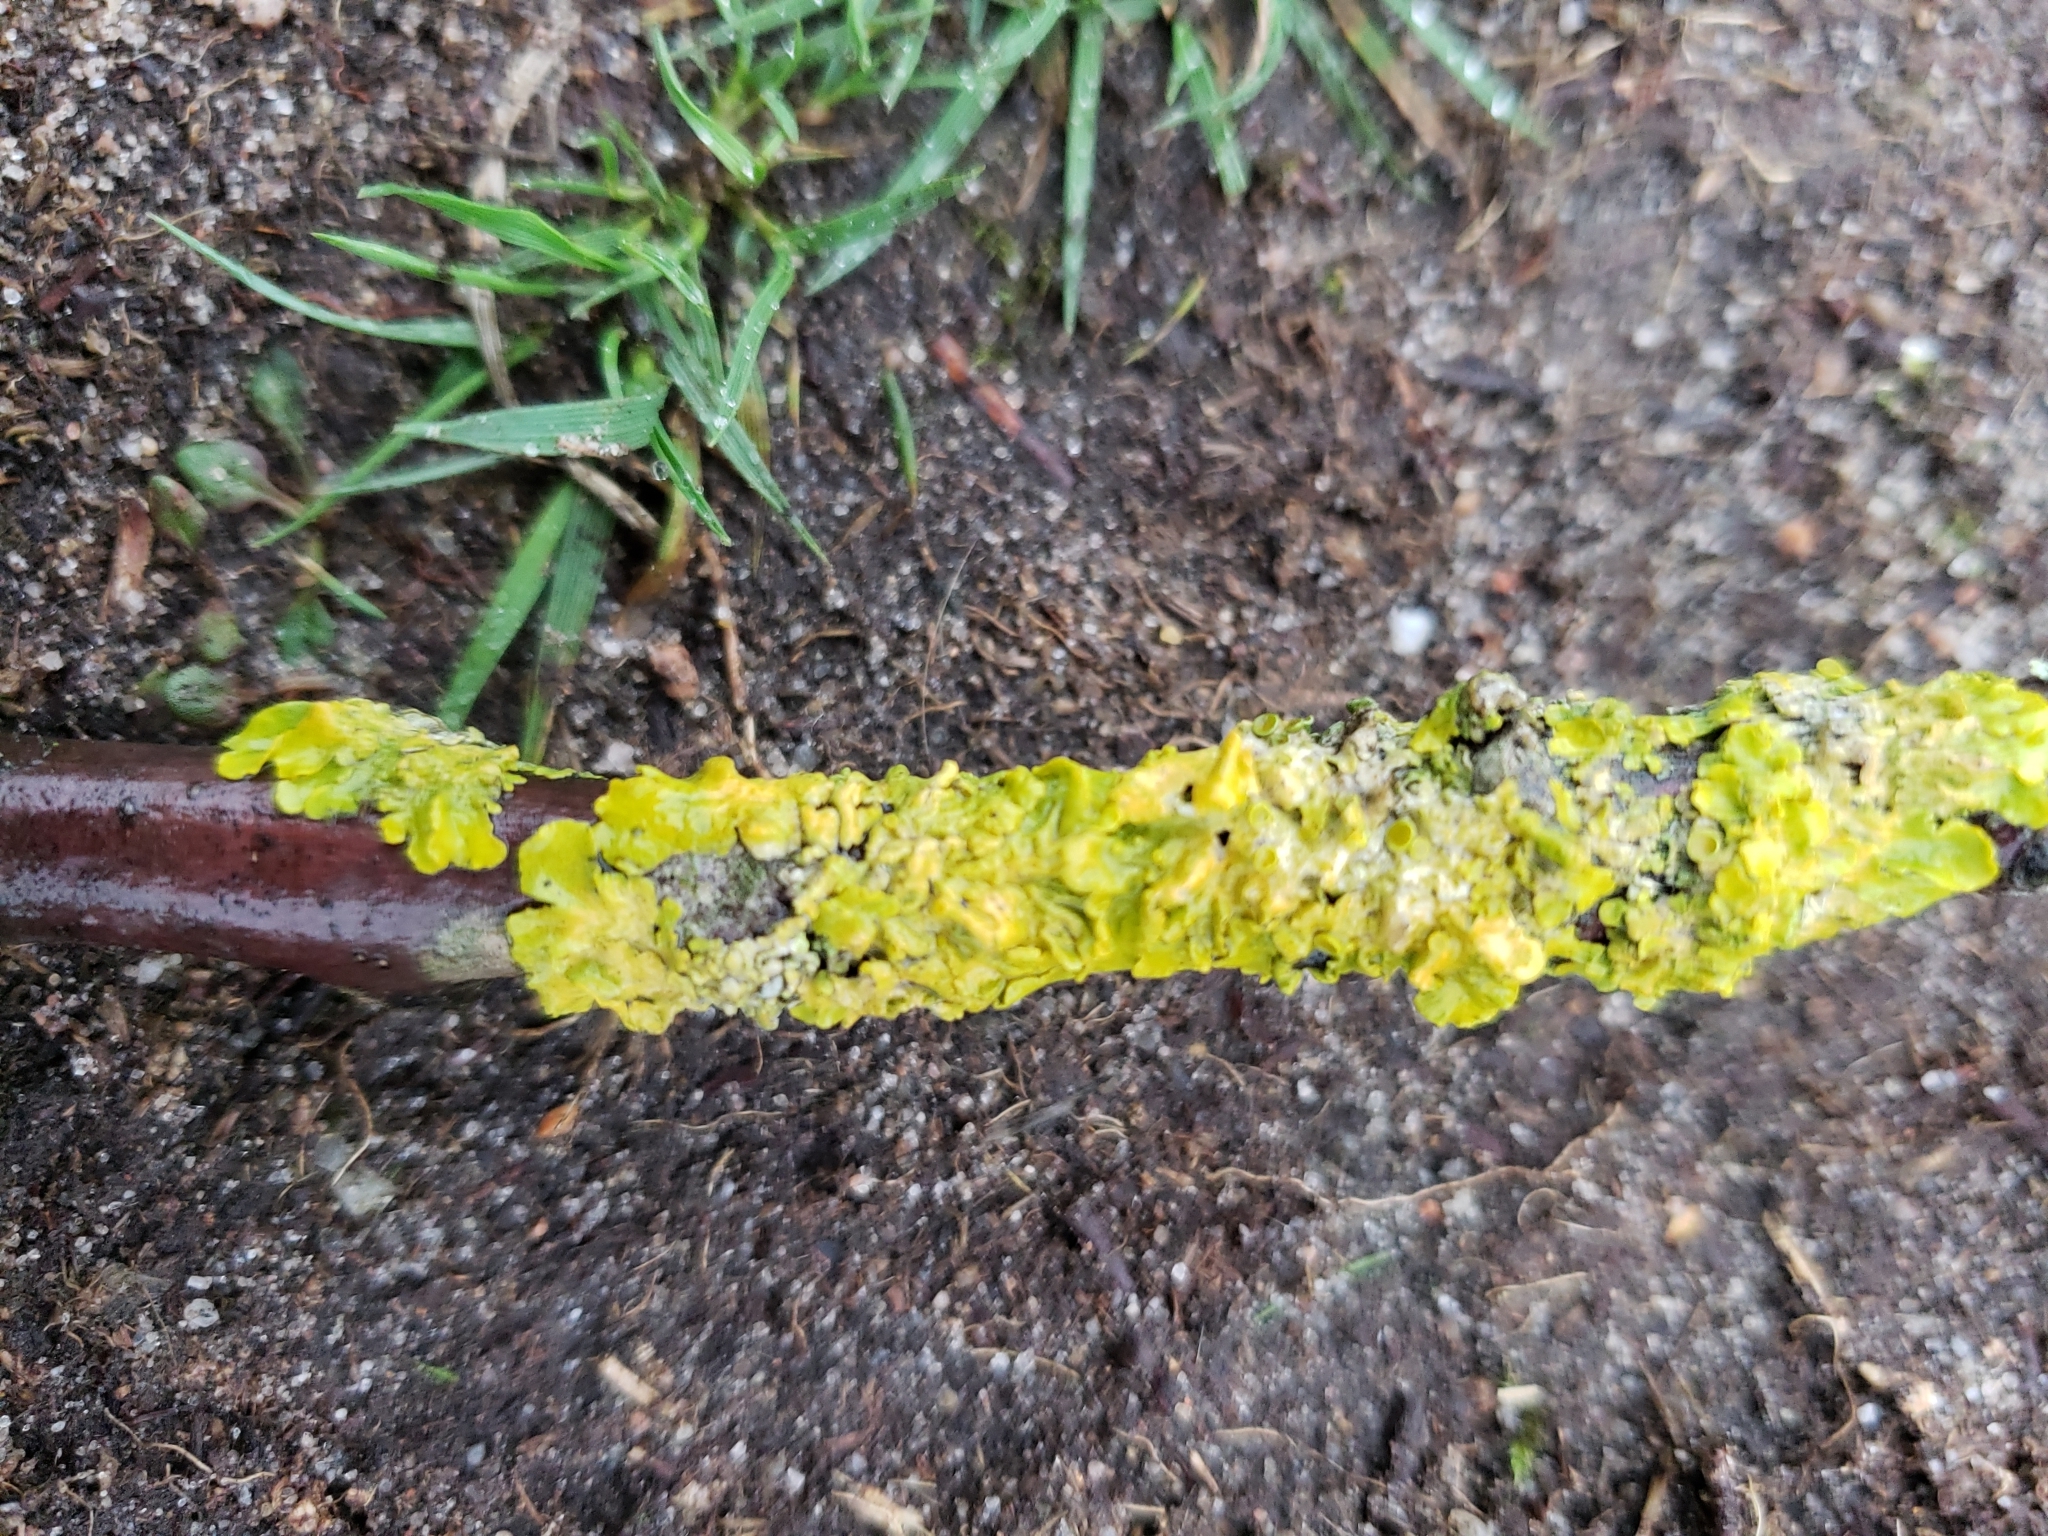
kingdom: Fungi
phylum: Ascomycota
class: Lecanoromycetes
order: Teloschistales
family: Teloschistaceae
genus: Xanthoria
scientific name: Xanthoria parietina
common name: Common orange lichen
